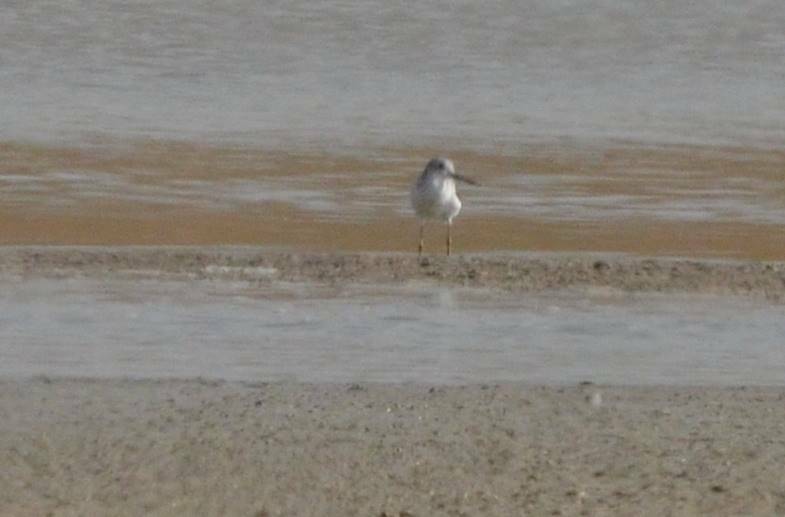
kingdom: Animalia
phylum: Chordata
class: Aves
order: Charadriiformes
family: Scolopacidae
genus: Tringa
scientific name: Tringa nebularia
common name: Common greenshank
